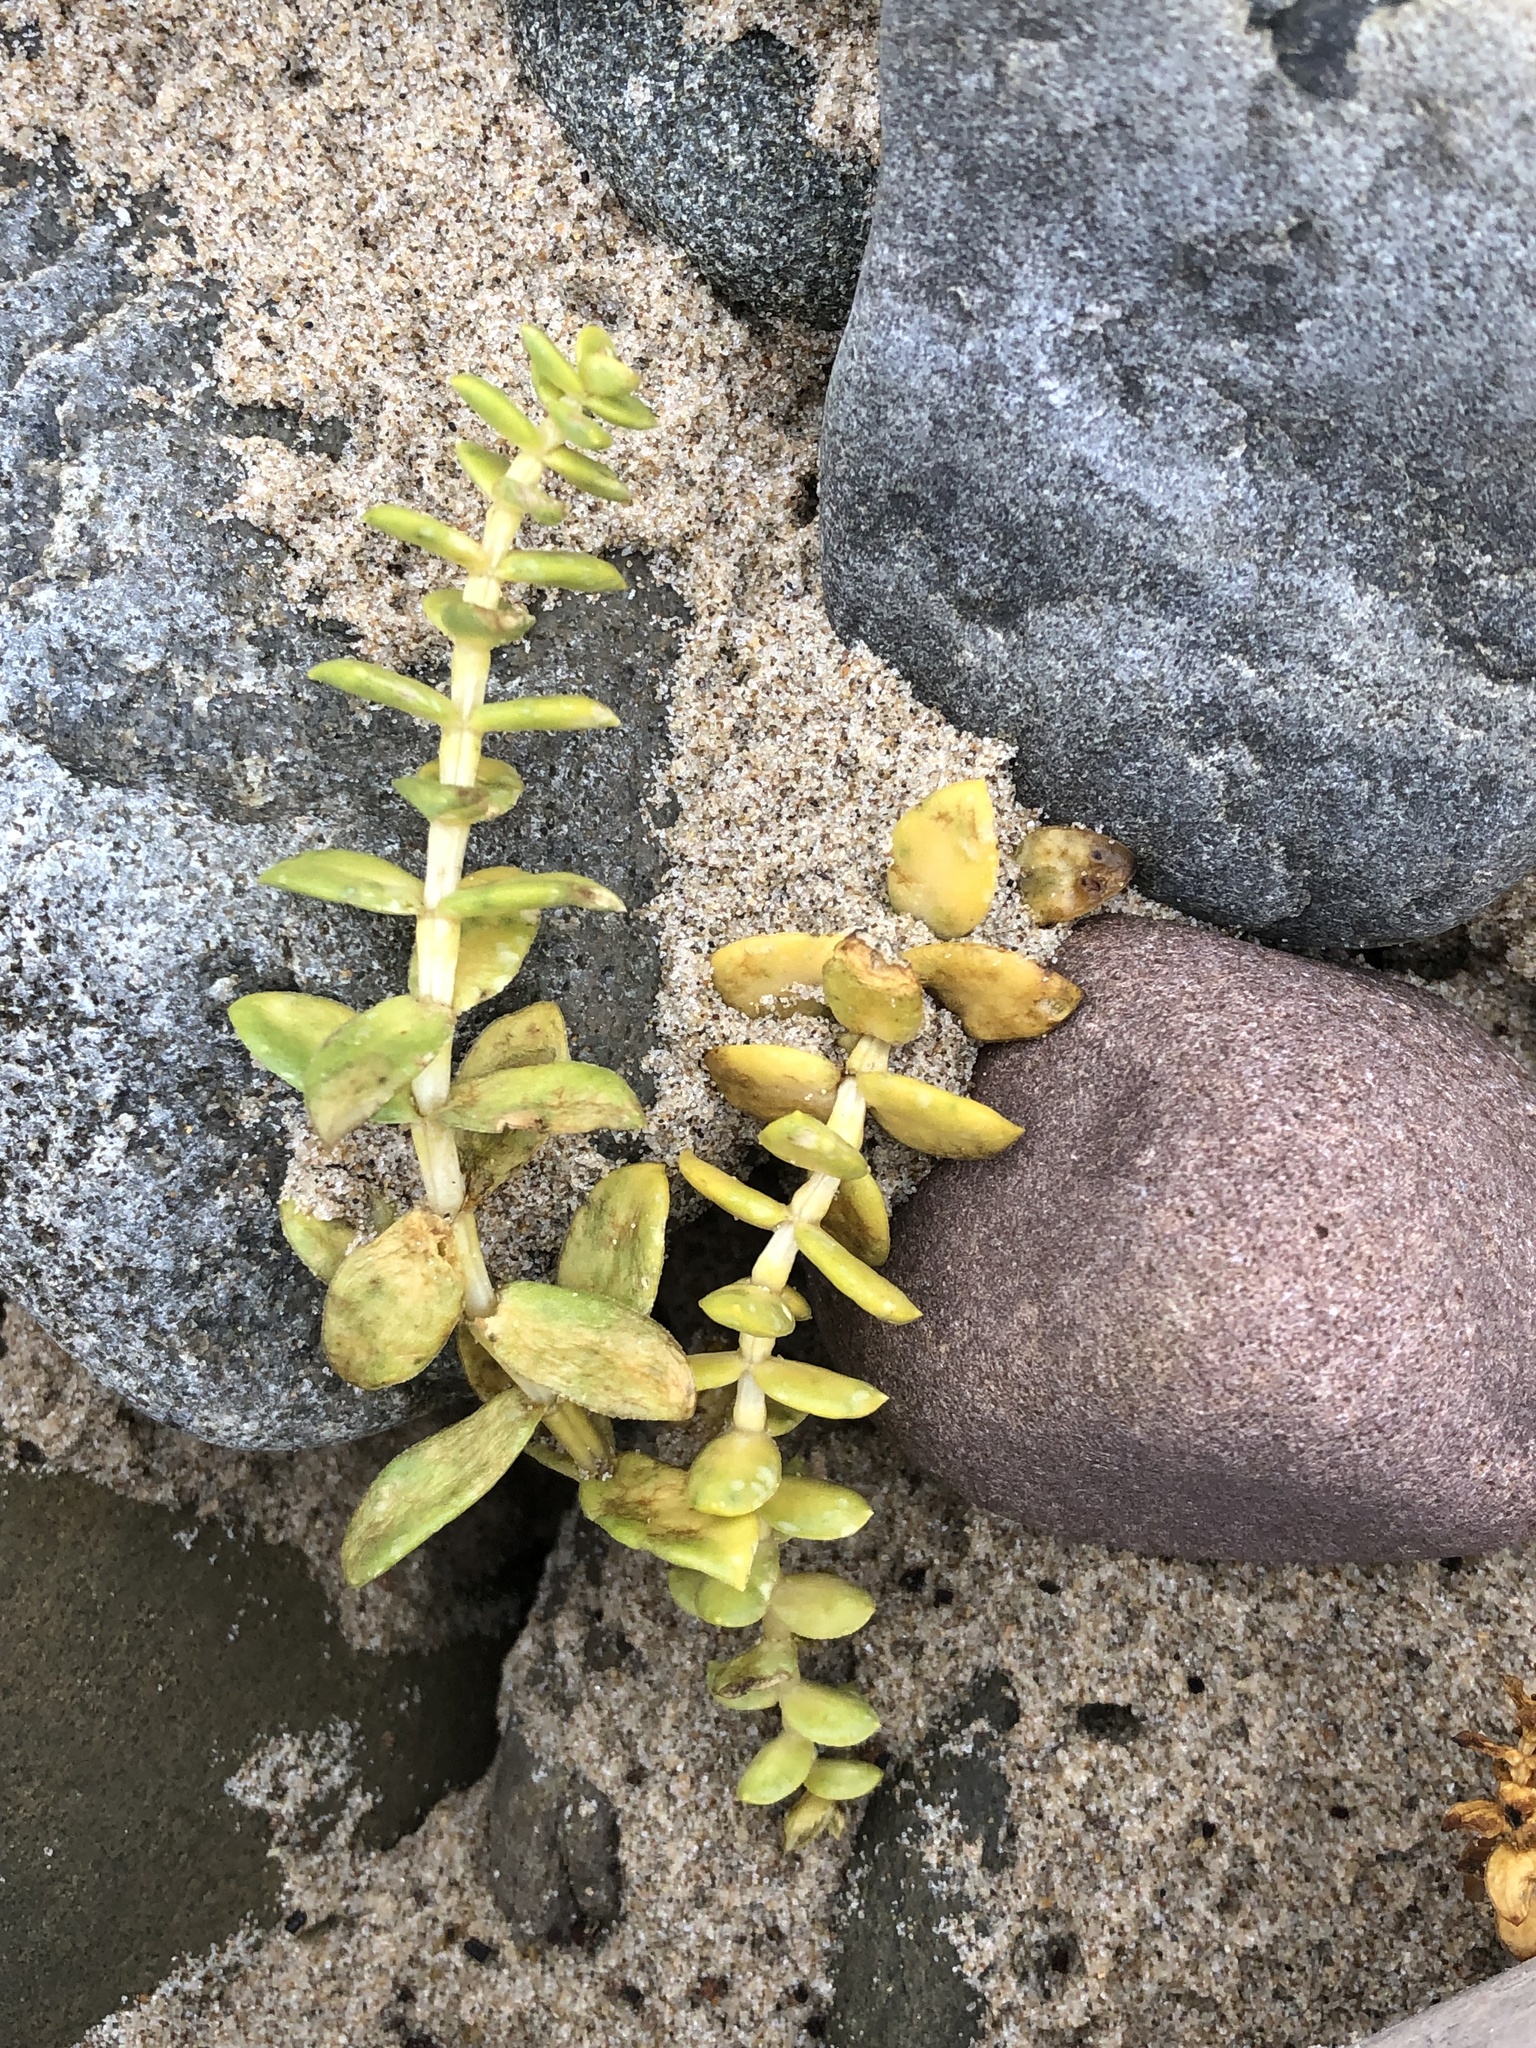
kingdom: Plantae
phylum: Tracheophyta
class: Magnoliopsida
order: Caryophyllales
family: Caryophyllaceae
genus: Honckenya
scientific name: Honckenya peploides
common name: Sea sandwort
